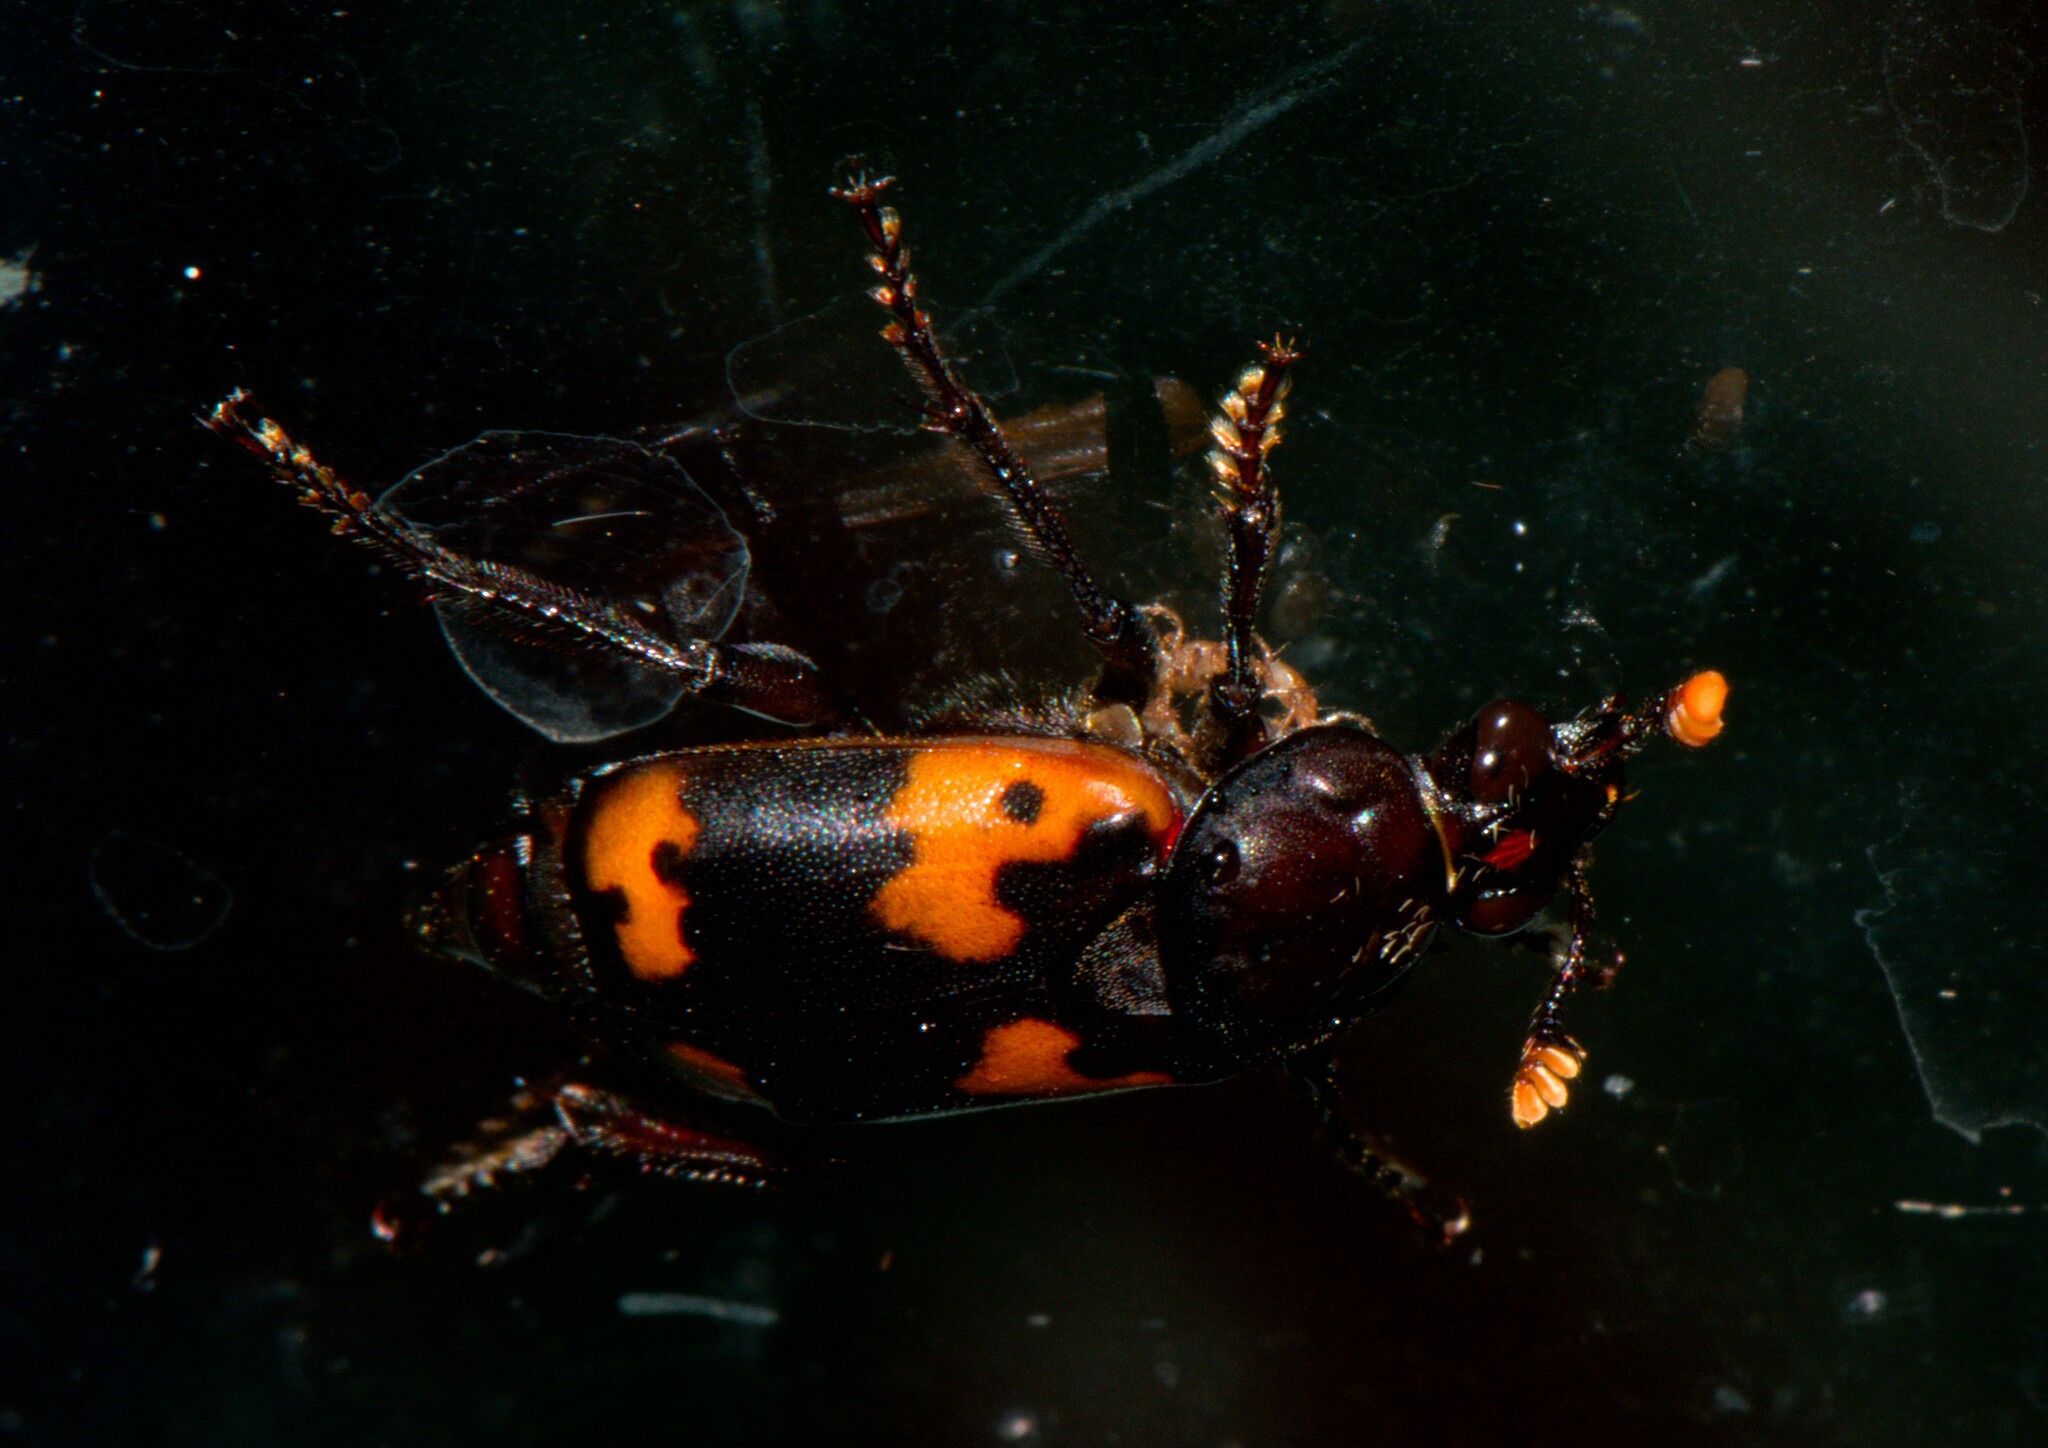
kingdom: Animalia
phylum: Arthropoda
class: Insecta
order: Coleoptera
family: Staphylinidae
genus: Nicrophorus
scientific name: Nicrophorus nepalensis
